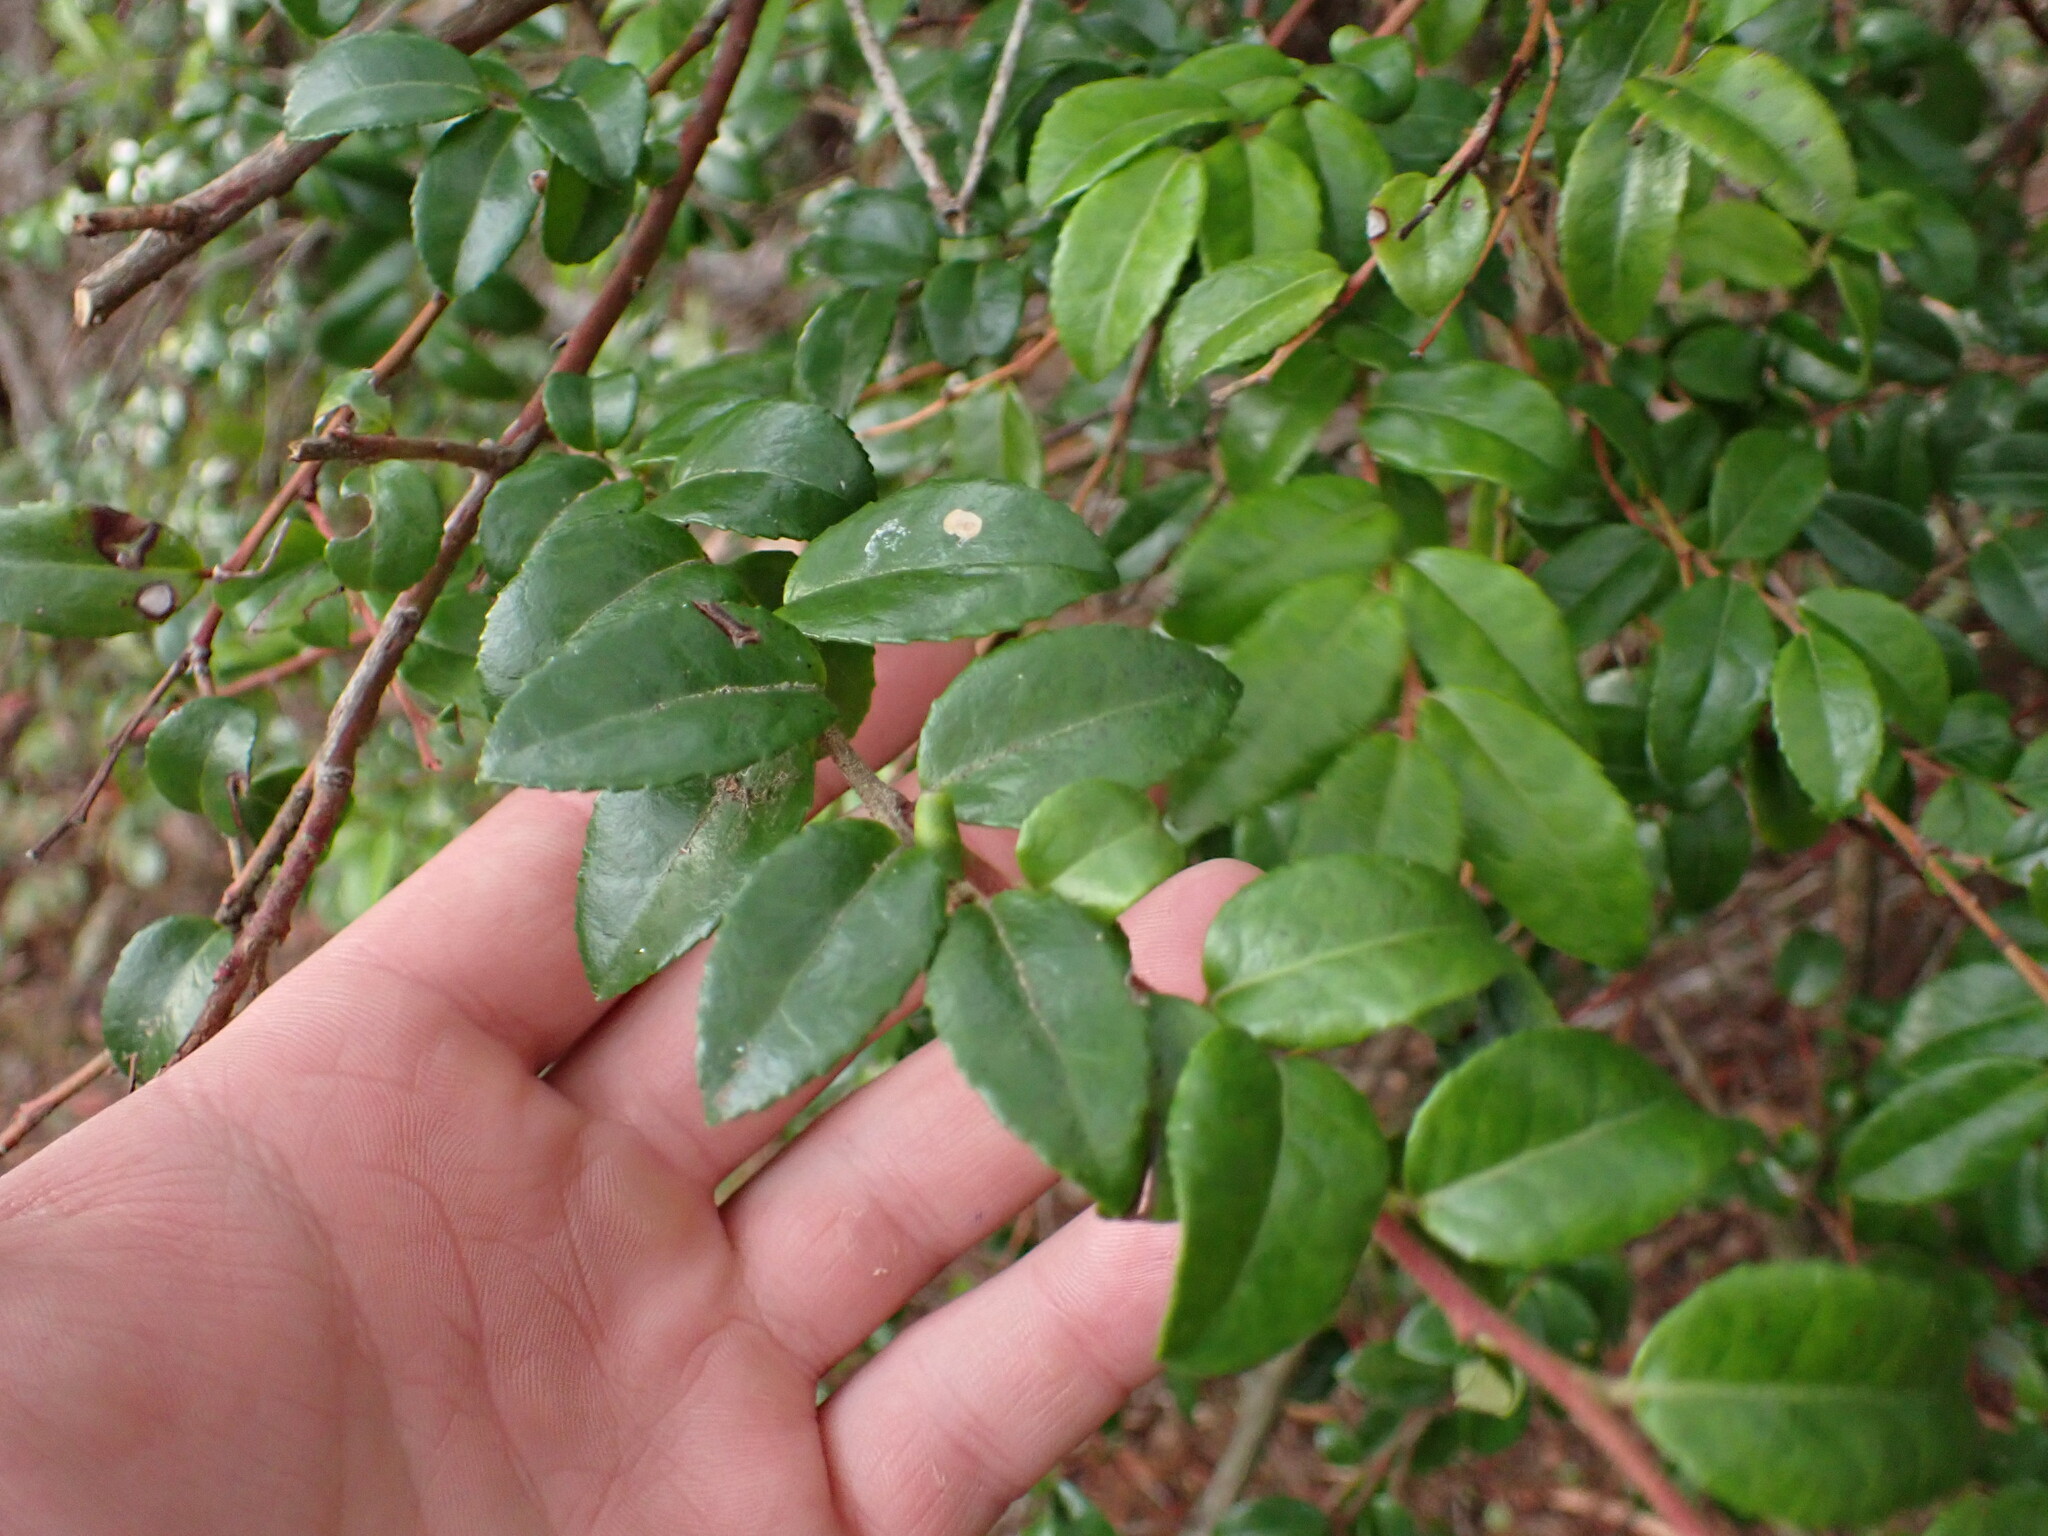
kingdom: Plantae
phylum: Tracheophyta
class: Magnoliopsida
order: Ericales
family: Ericaceae
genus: Vaccinium
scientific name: Vaccinium ovatum
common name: California-huckleberry
